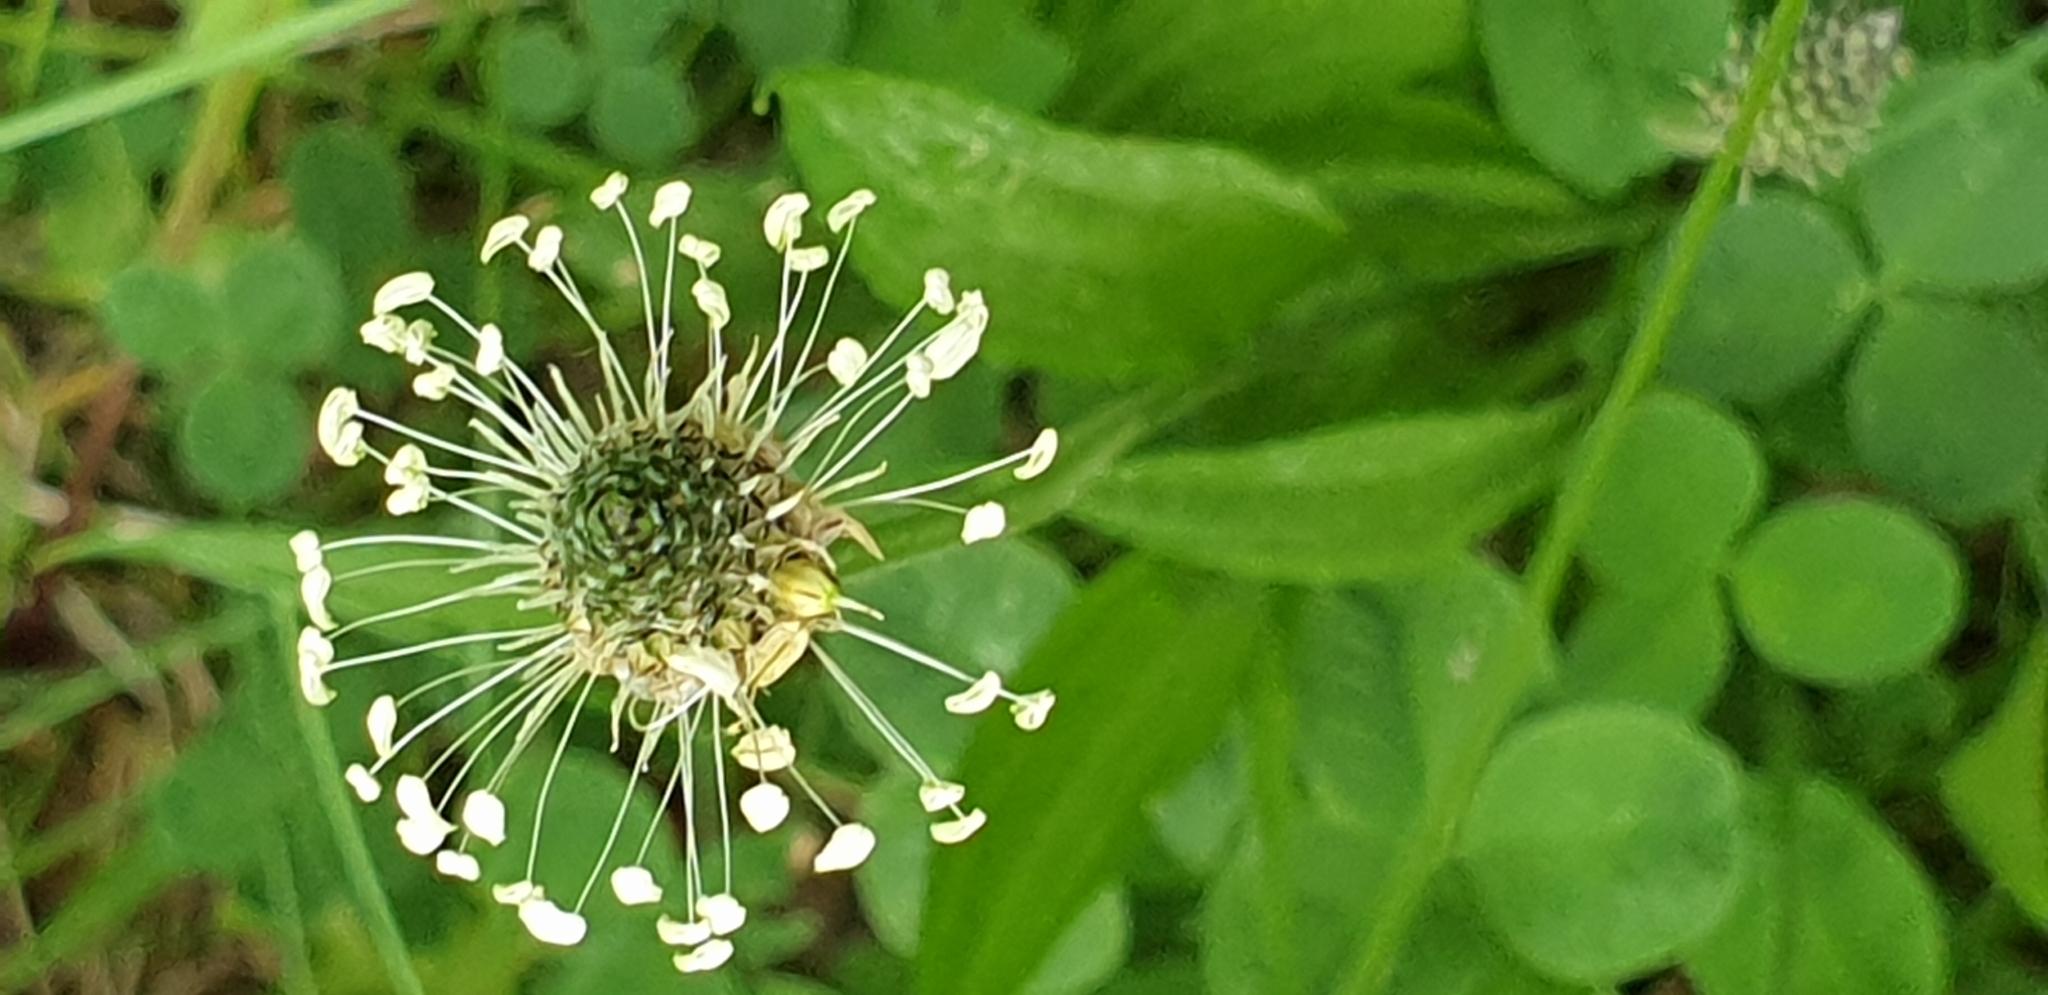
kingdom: Plantae
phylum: Tracheophyta
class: Magnoliopsida
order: Lamiales
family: Plantaginaceae
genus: Plantago
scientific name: Plantago lanceolata
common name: Ribwort plantain
